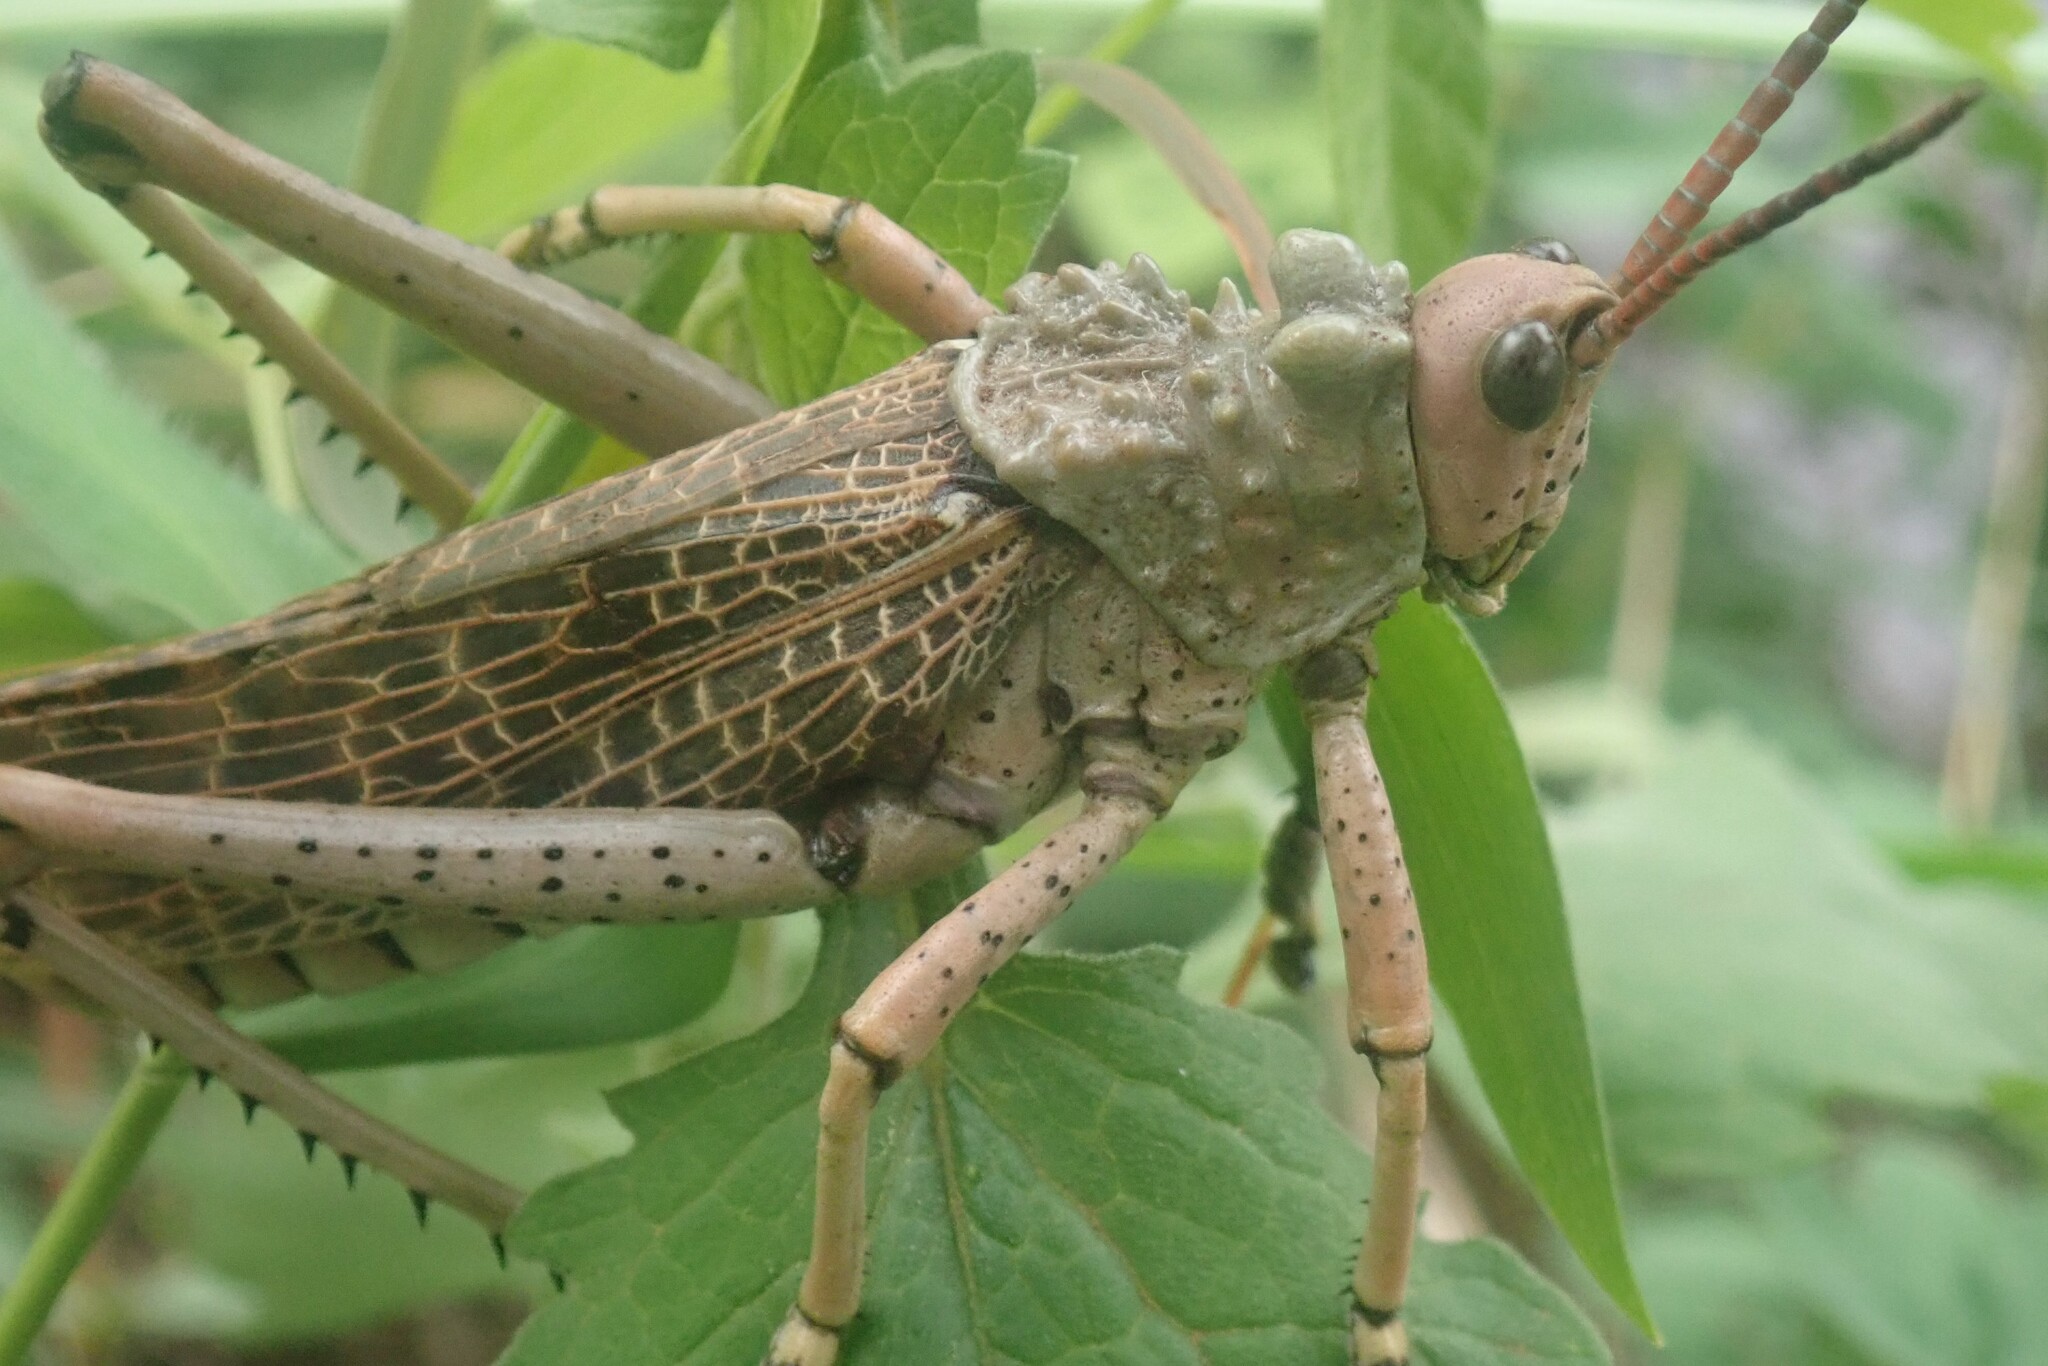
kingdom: Animalia
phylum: Arthropoda
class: Insecta
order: Orthoptera
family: Pyrgomorphidae
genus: Phymateus
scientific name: Phymateus leprosus
